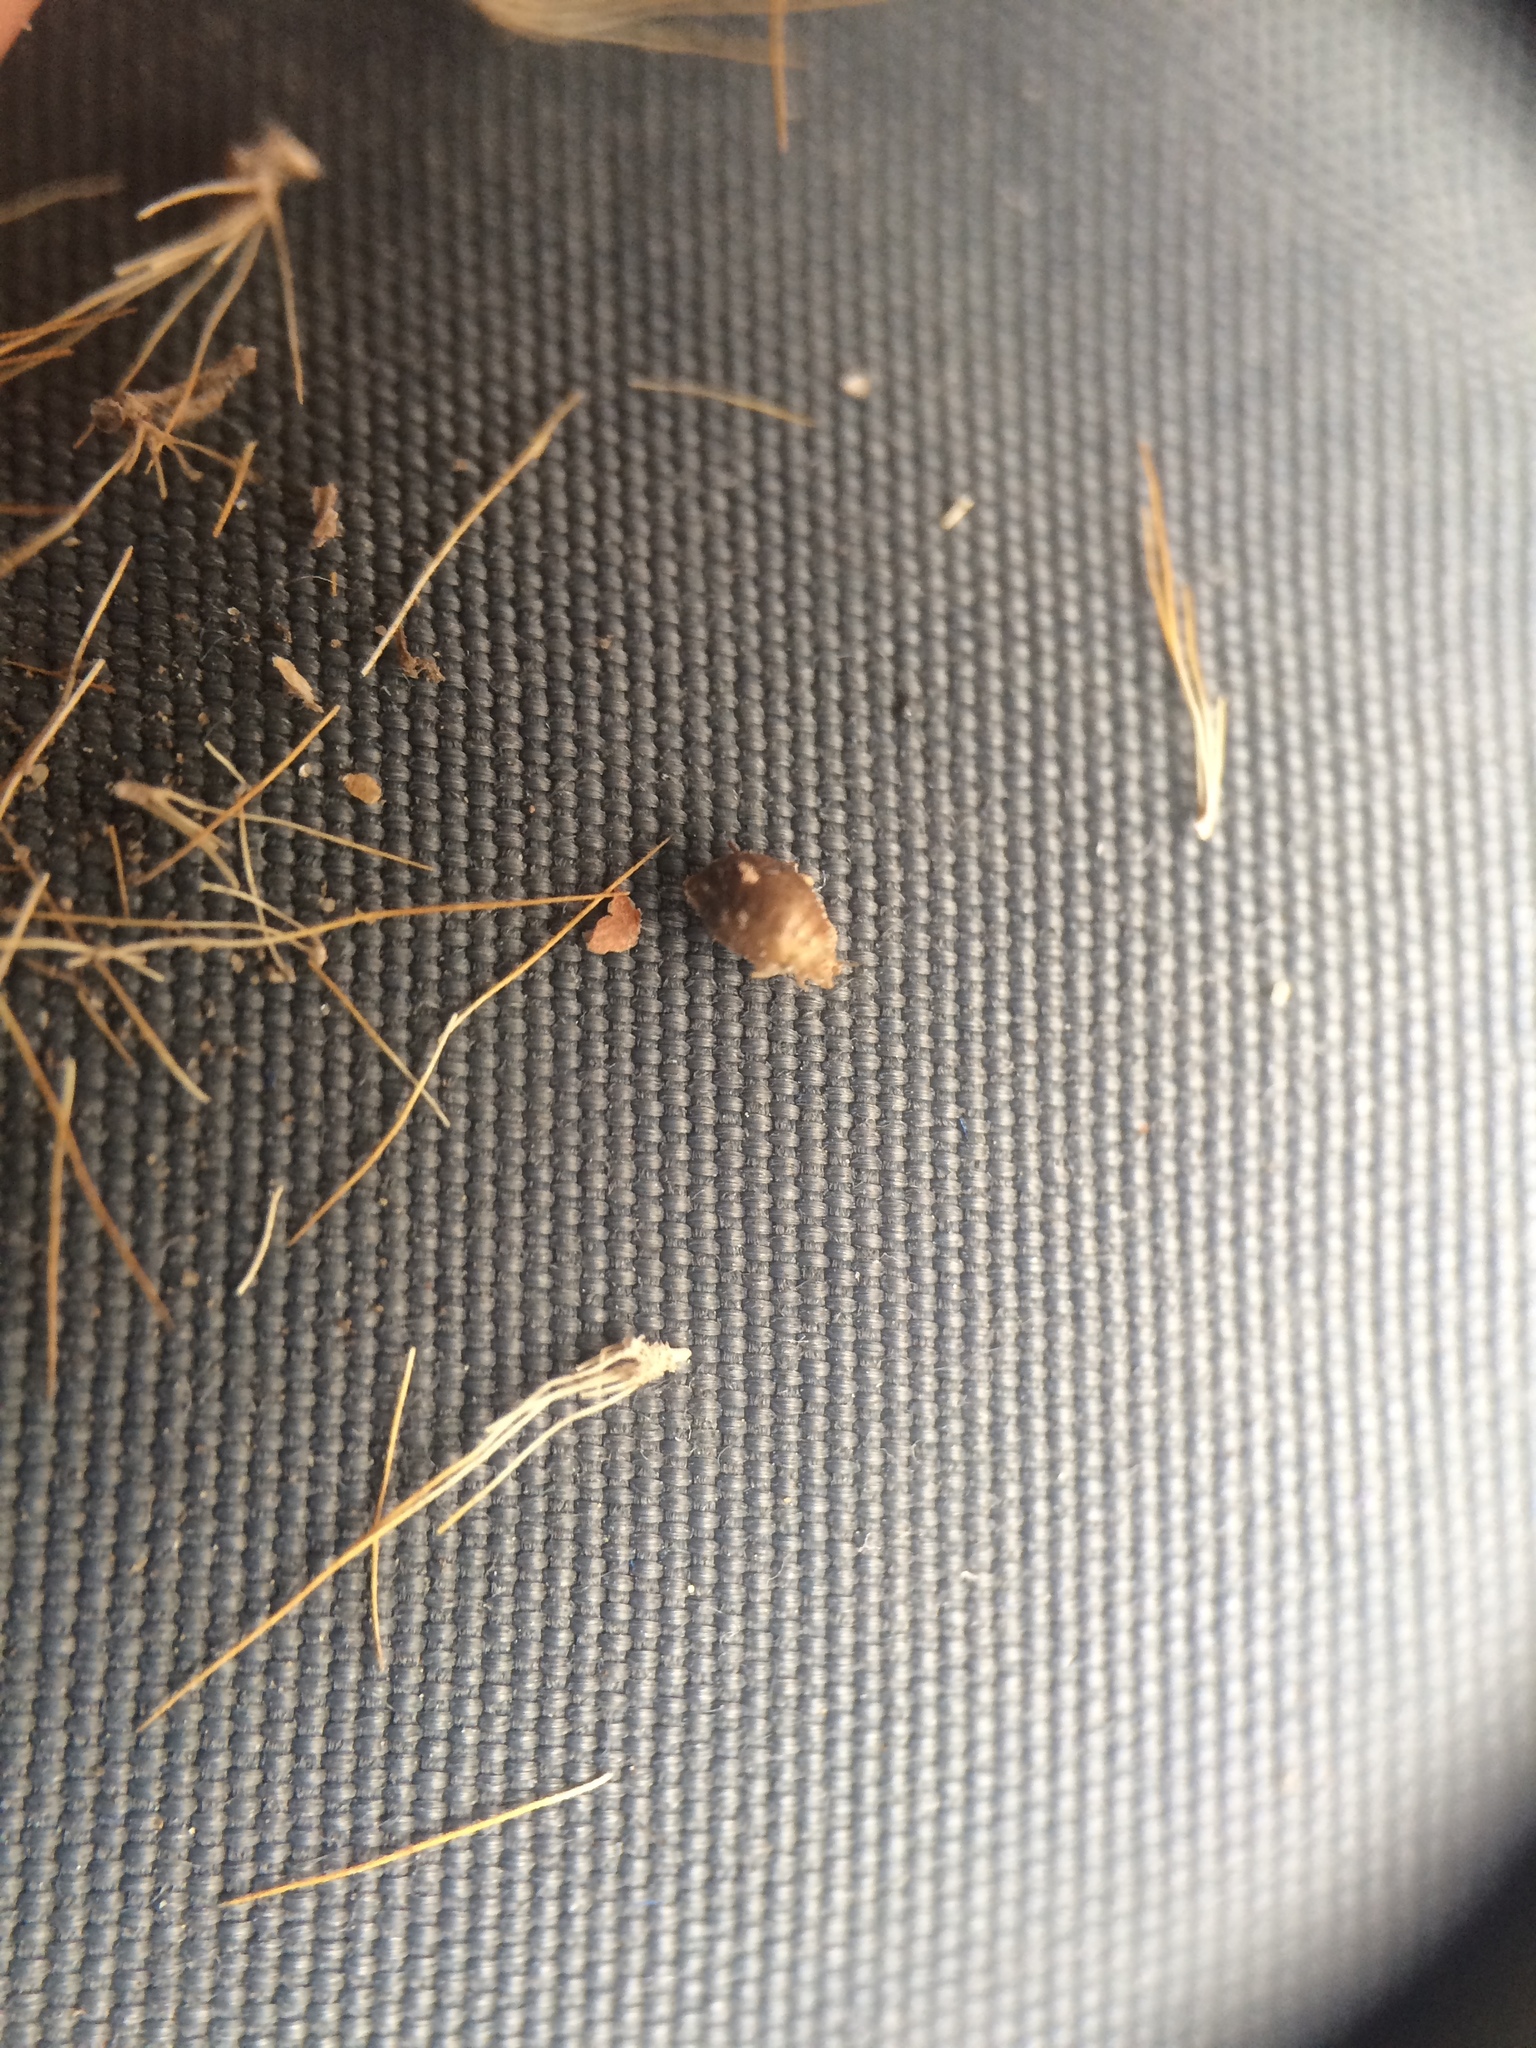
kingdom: Plantae
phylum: Tracheophyta
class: Liliopsida
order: Poales
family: Poaceae
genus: Setaria
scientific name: Setaria pumila
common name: Yellow bristle-grass
